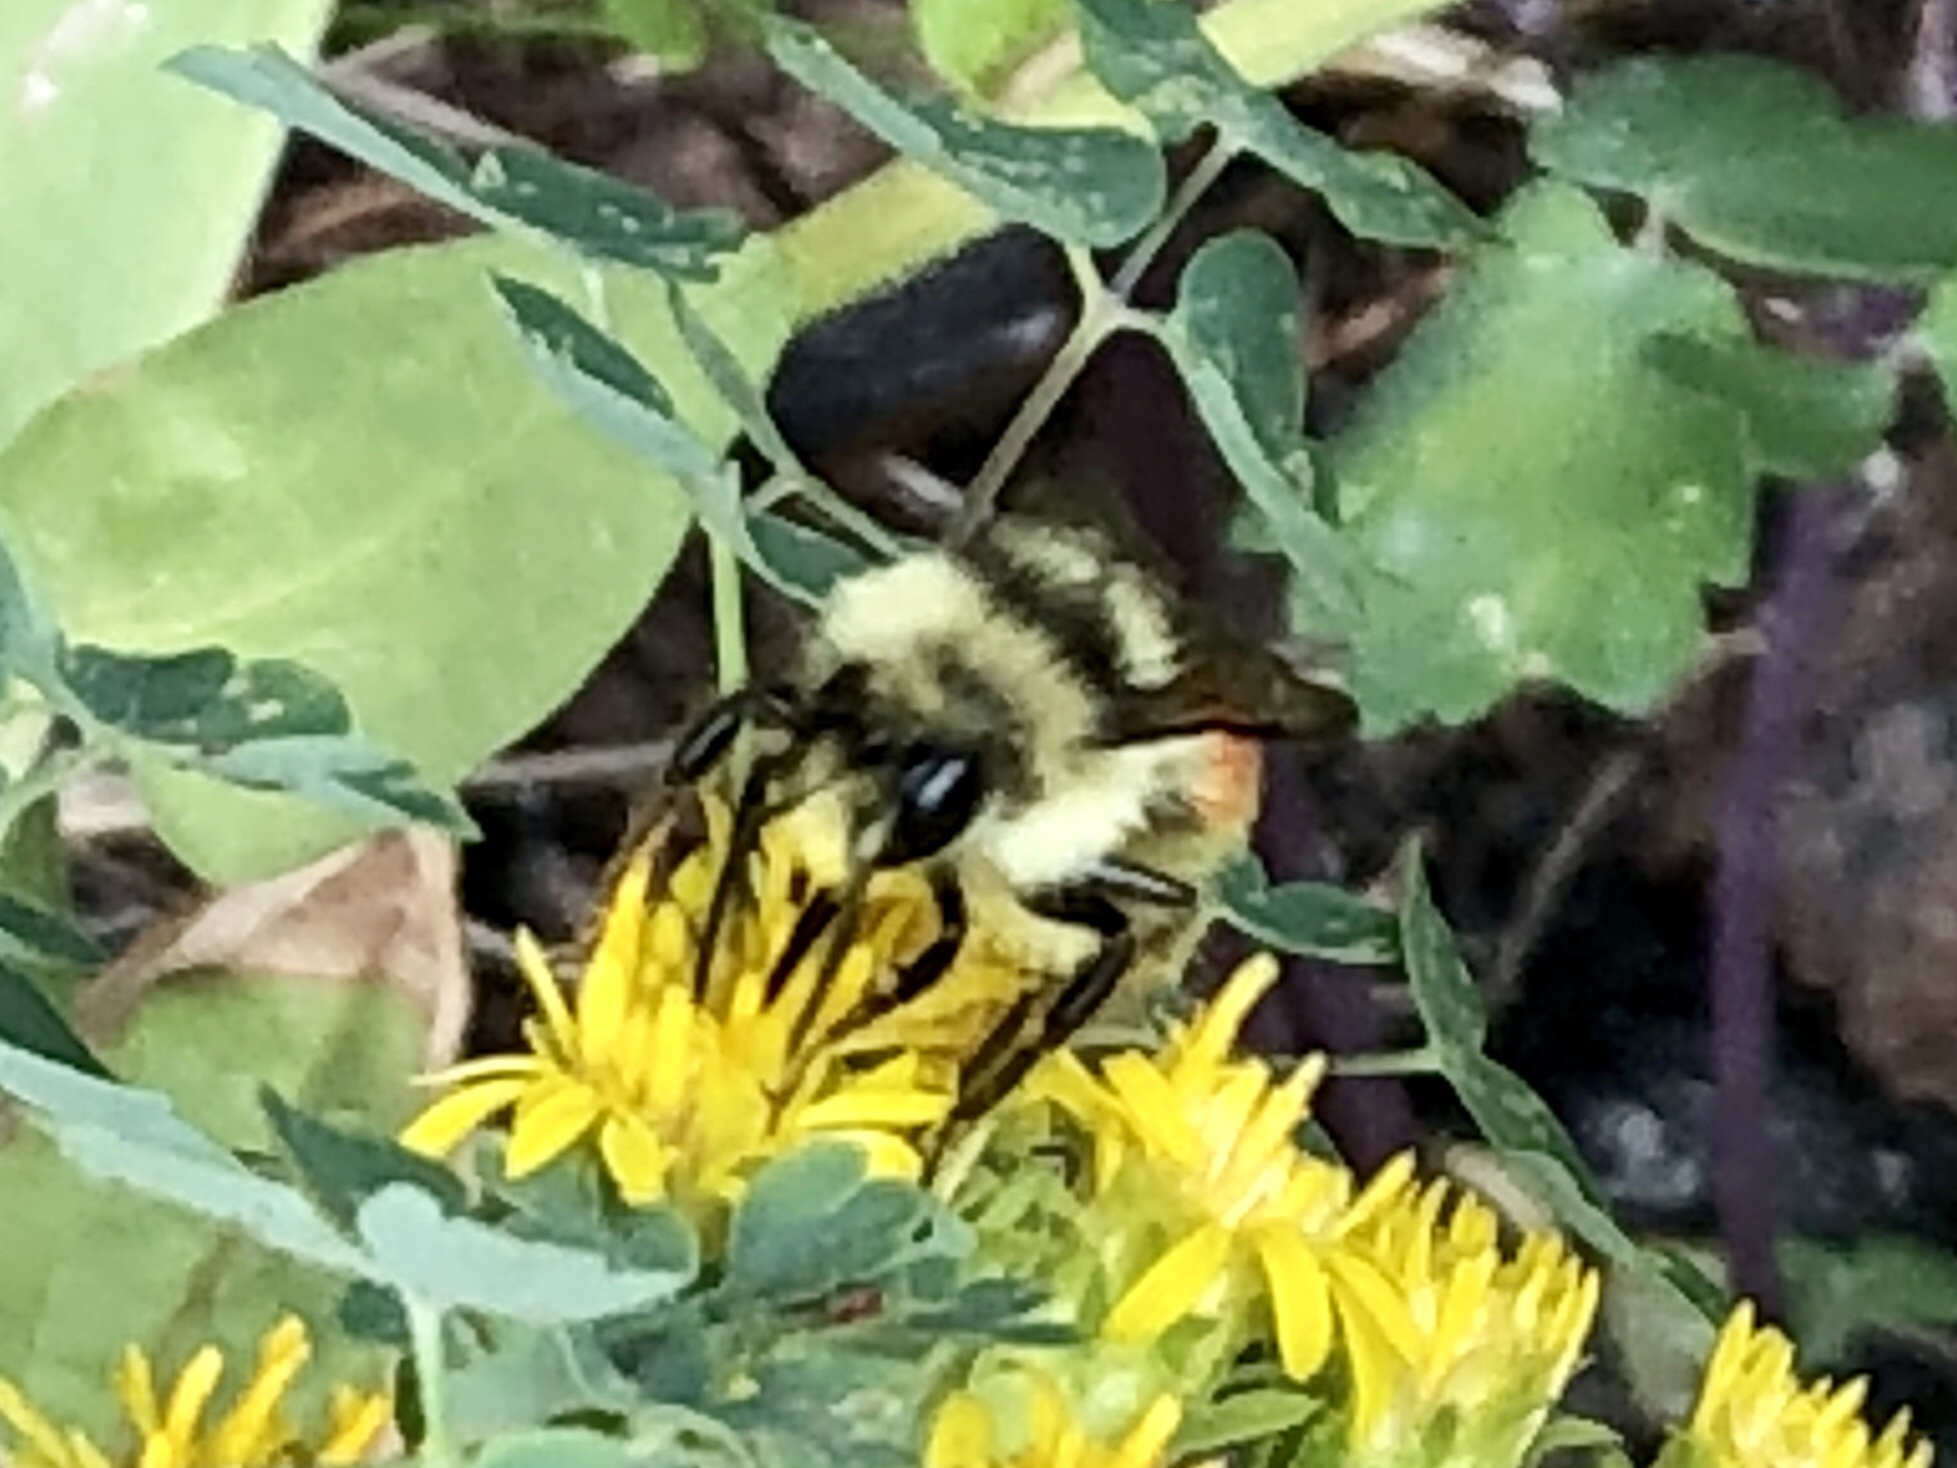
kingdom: Animalia
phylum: Arthropoda
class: Insecta
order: Hymenoptera
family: Apidae
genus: Bombus
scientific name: Bombus huntii
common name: Hunt bumble bee
